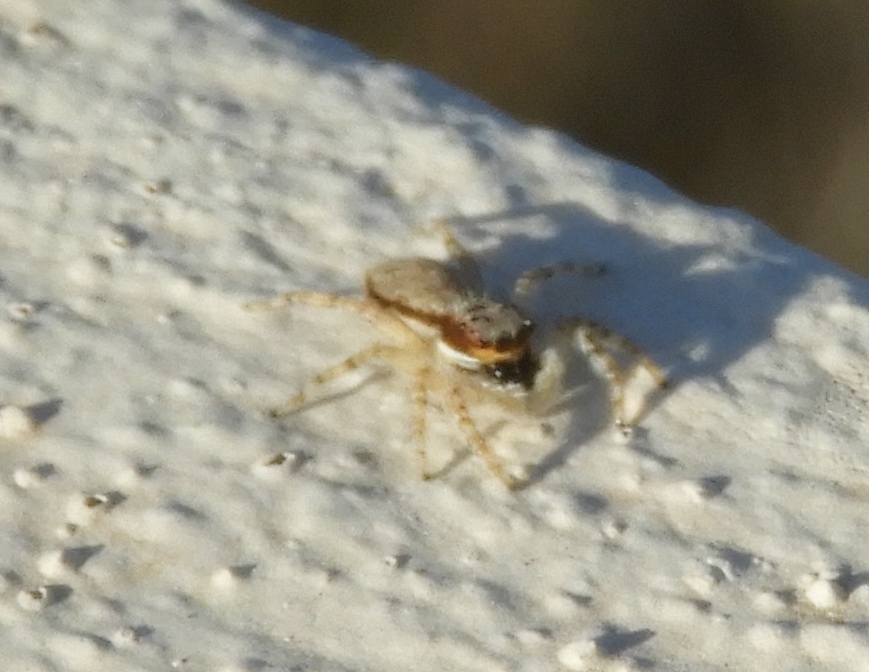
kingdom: Animalia
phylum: Arthropoda
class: Arachnida
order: Araneae
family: Salticidae
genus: Menemerus
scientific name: Menemerus bivittatus
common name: Gray wall jumper
